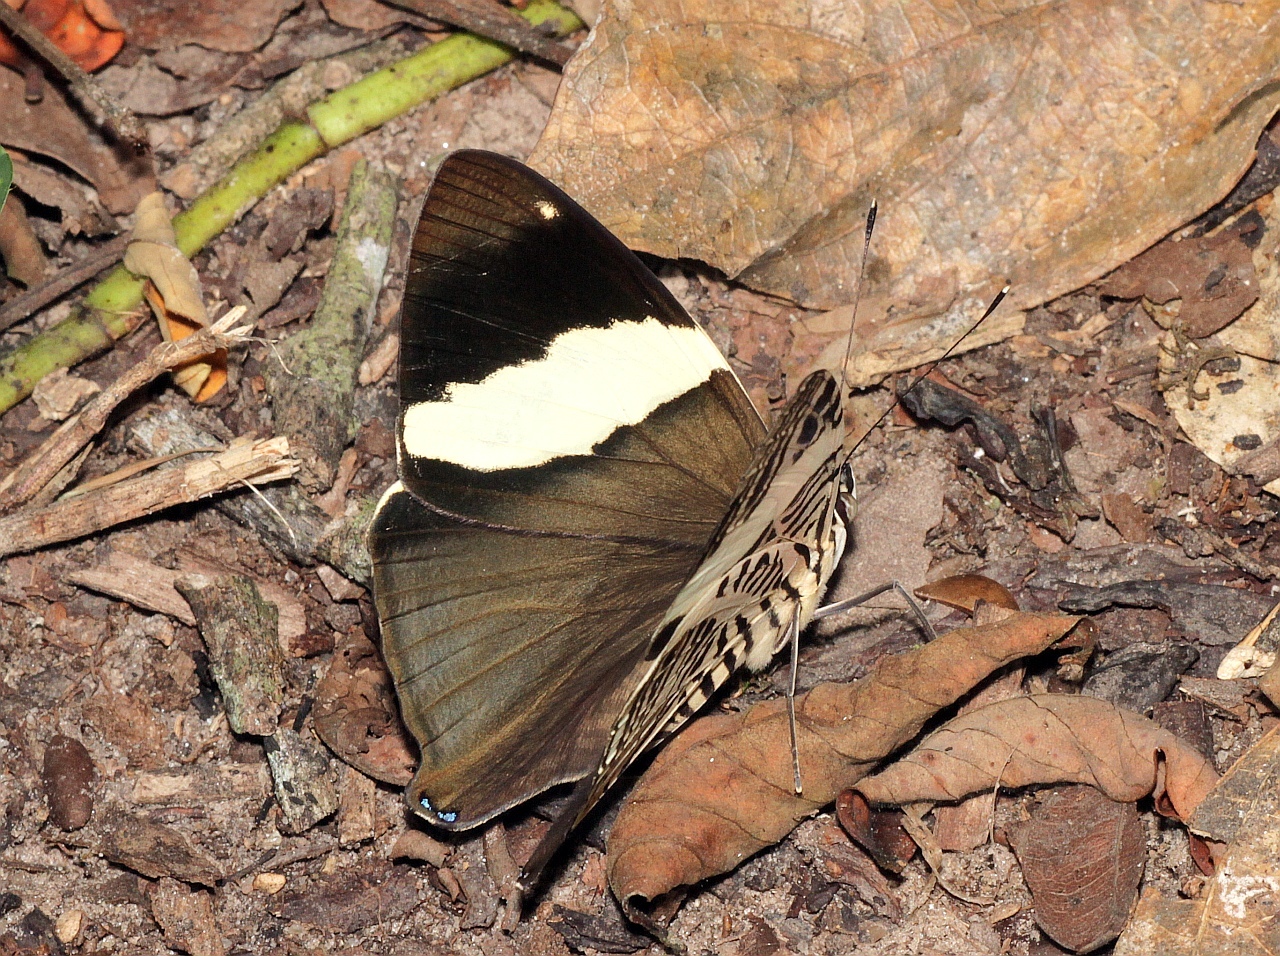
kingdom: Animalia
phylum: Arthropoda
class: Insecta
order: Lepidoptera
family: Nymphalidae
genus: Colobura
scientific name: Colobura dirce
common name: Dirce beauty
